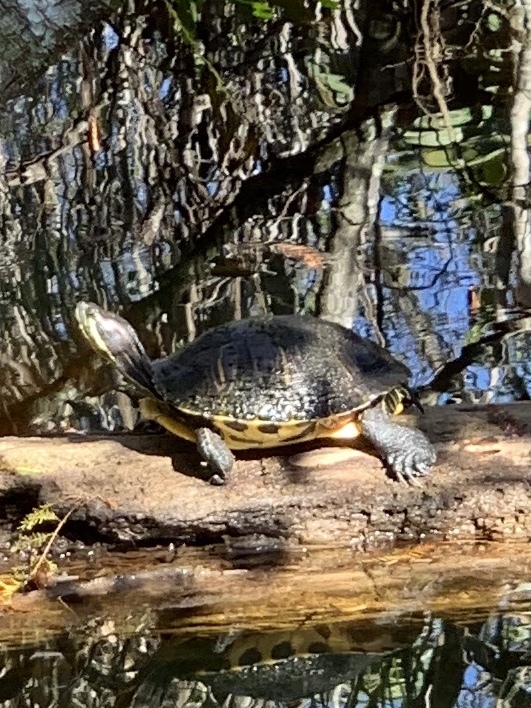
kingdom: Animalia
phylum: Chordata
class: Testudines
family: Emydidae
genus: Trachemys
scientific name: Trachemys scripta
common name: Slider
